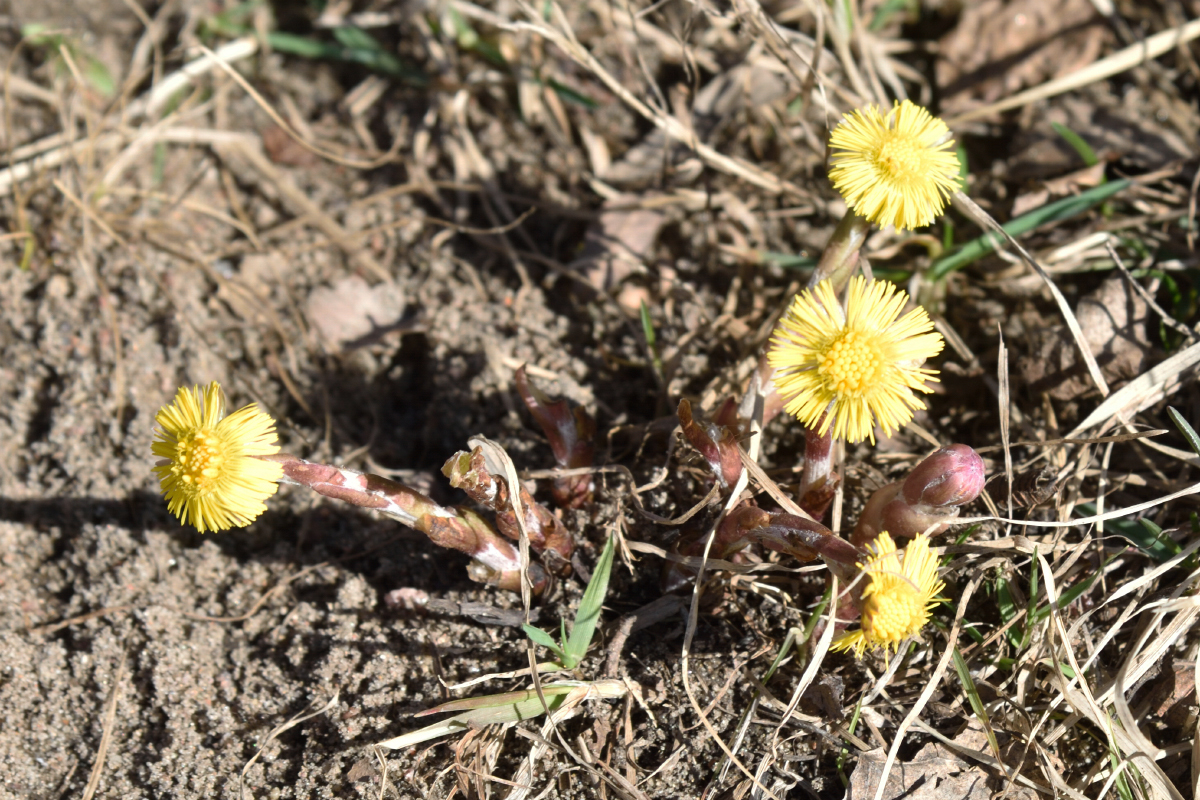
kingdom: Plantae
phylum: Tracheophyta
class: Magnoliopsida
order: Asterales
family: Asteraceae
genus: Tussilago
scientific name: Tussilago farfara
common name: Coltsfoot
